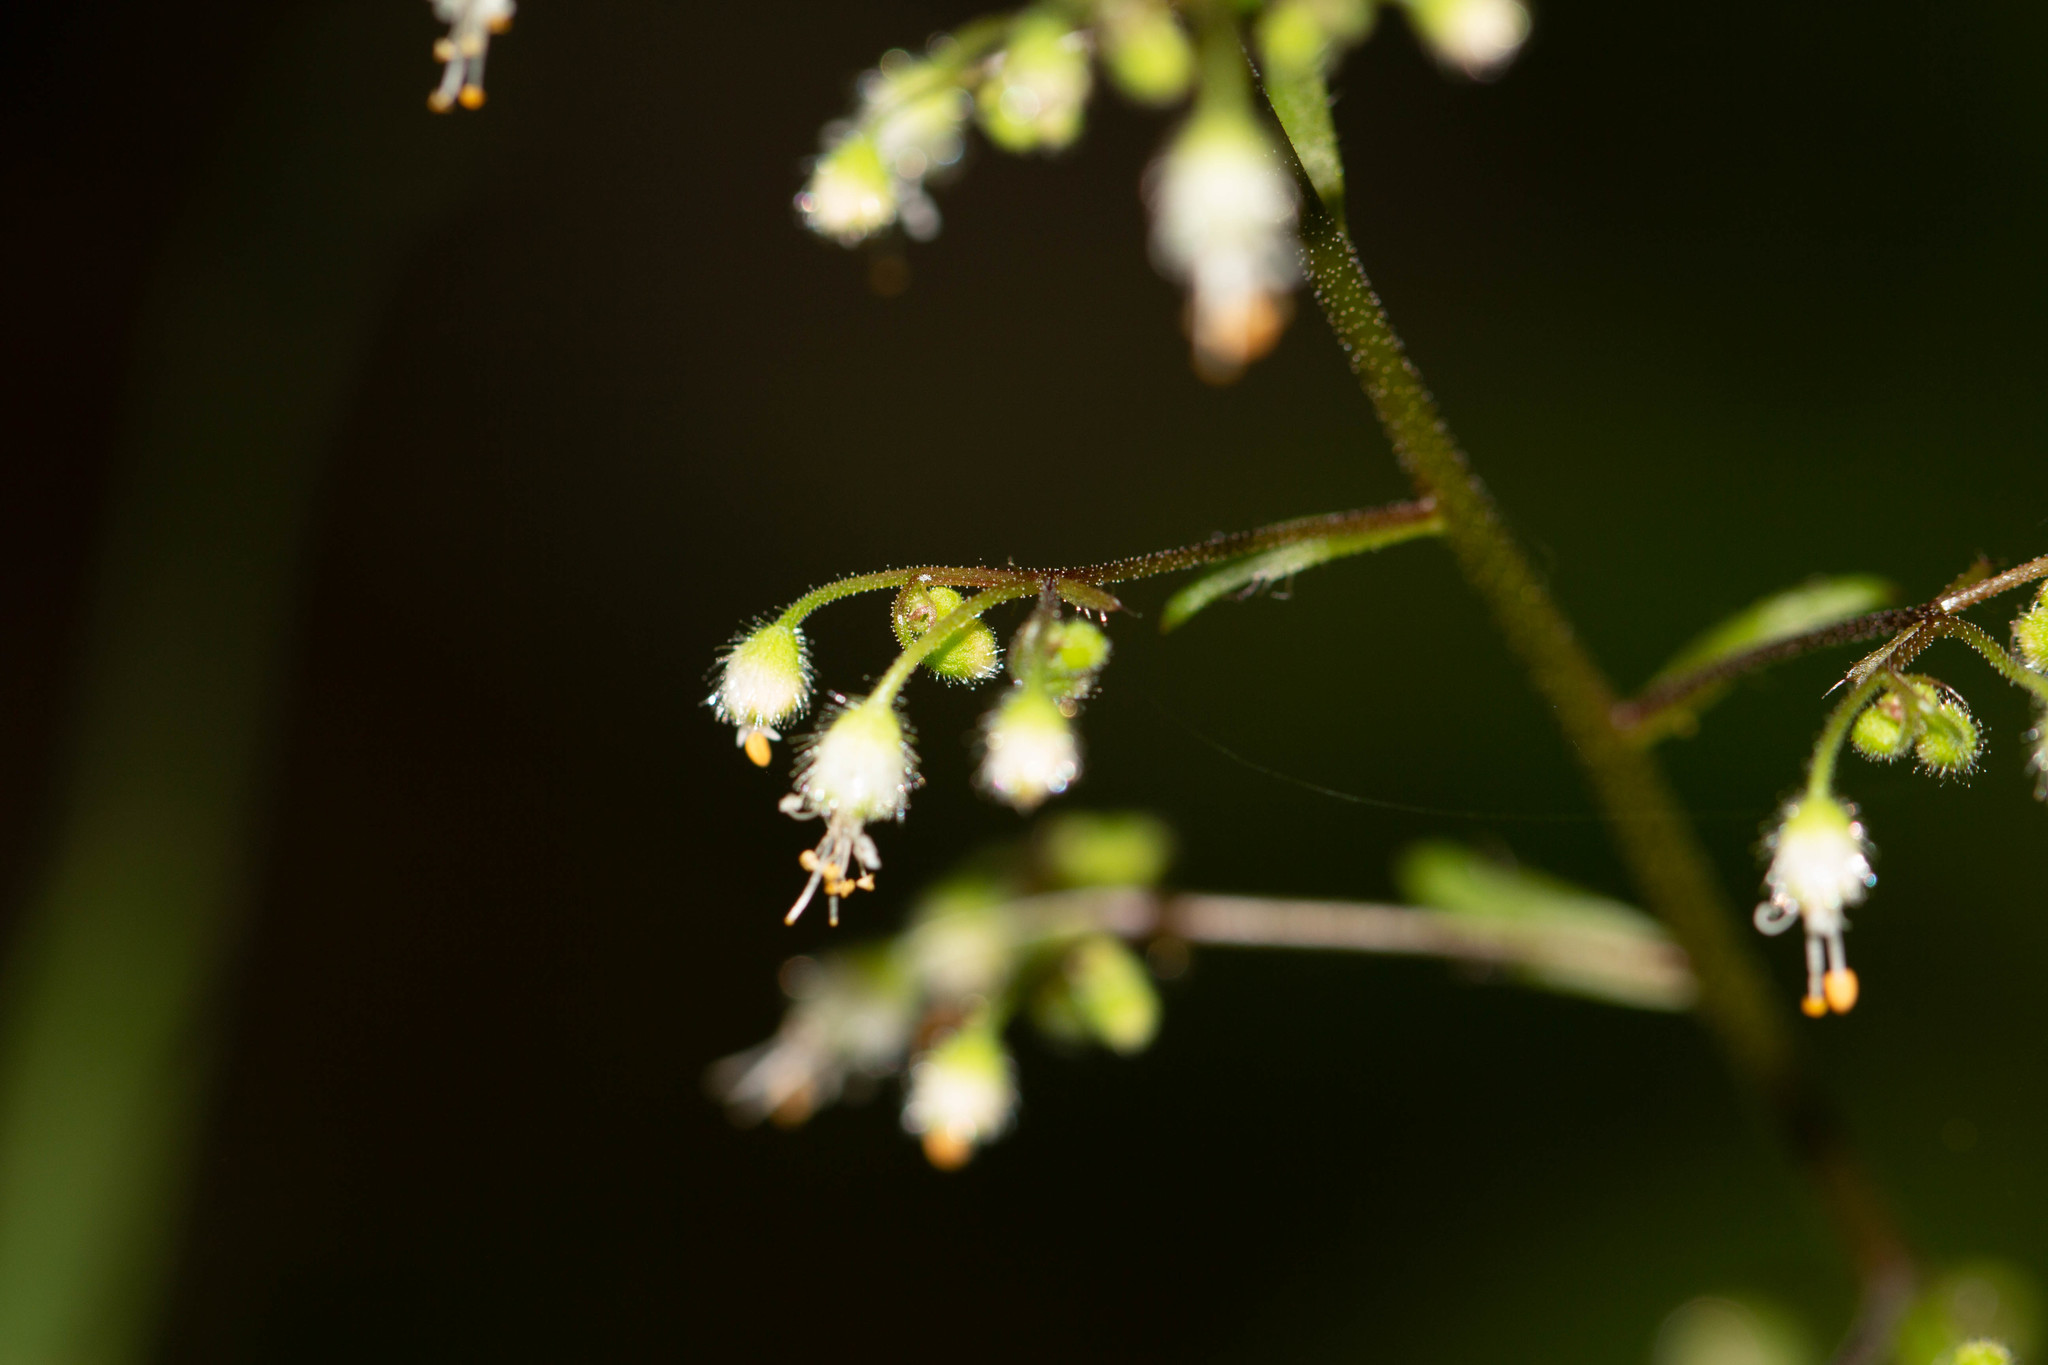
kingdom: Plantae
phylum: Tracheophyta
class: Magnoliopsida
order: Saxifragales
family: Saxifragaceae
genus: Heuchera
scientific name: Heuchera villosa
